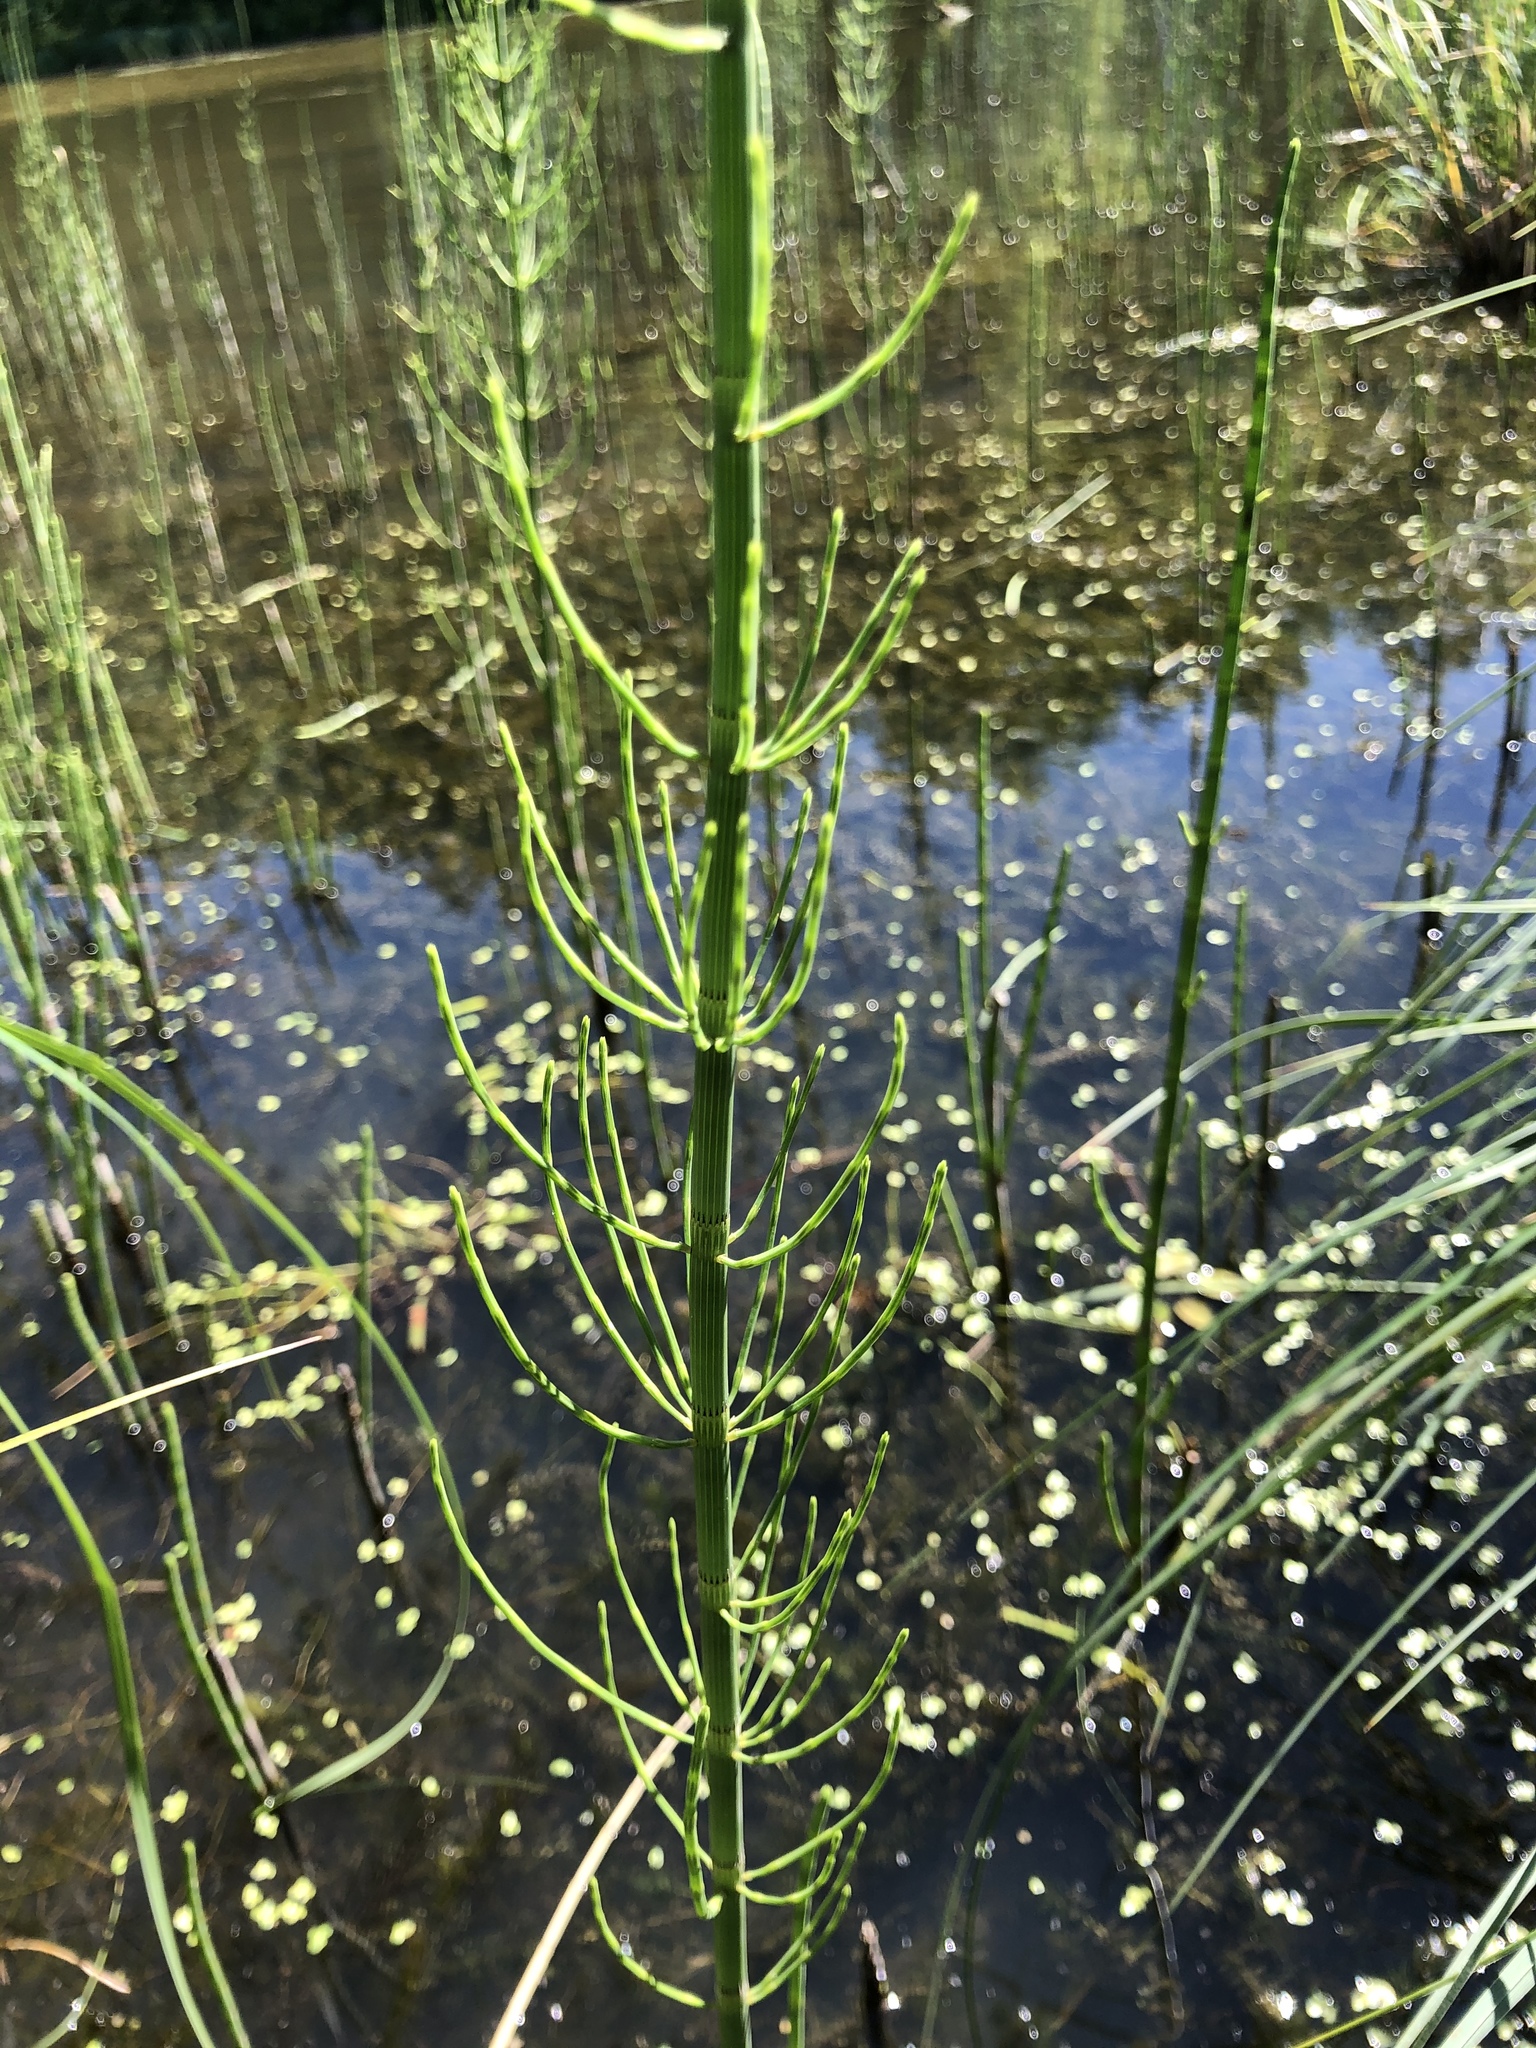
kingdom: Plantae
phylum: Tracheophyta
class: Polypodiopsida
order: Equisetales
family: Equisetaceae
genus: Equisetum
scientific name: Equisetum fluviatile
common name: Water horsetail
